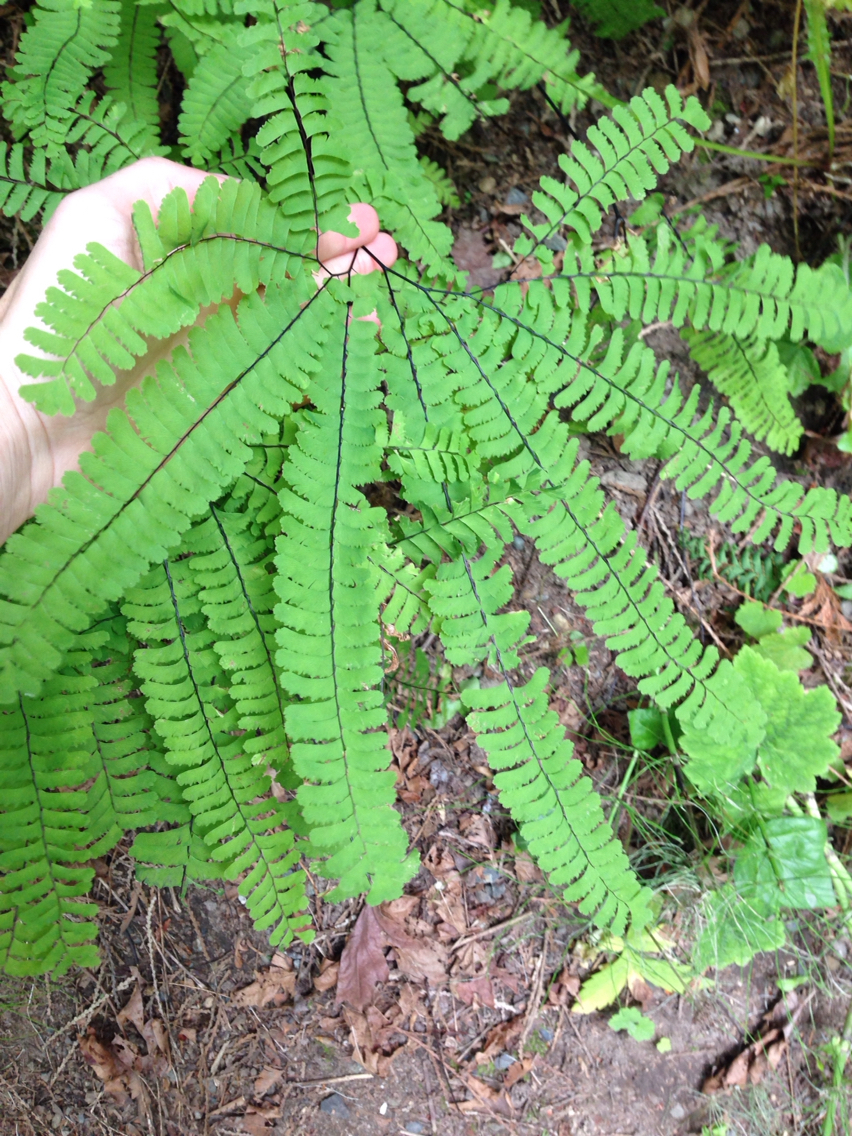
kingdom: Plantae
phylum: Tracheophyta
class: Polypodiopsida
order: Polypodiales
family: Pteridaceae
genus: Adiantum
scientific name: Adiantum aleuticum
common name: Aleutian maidenhair fern
